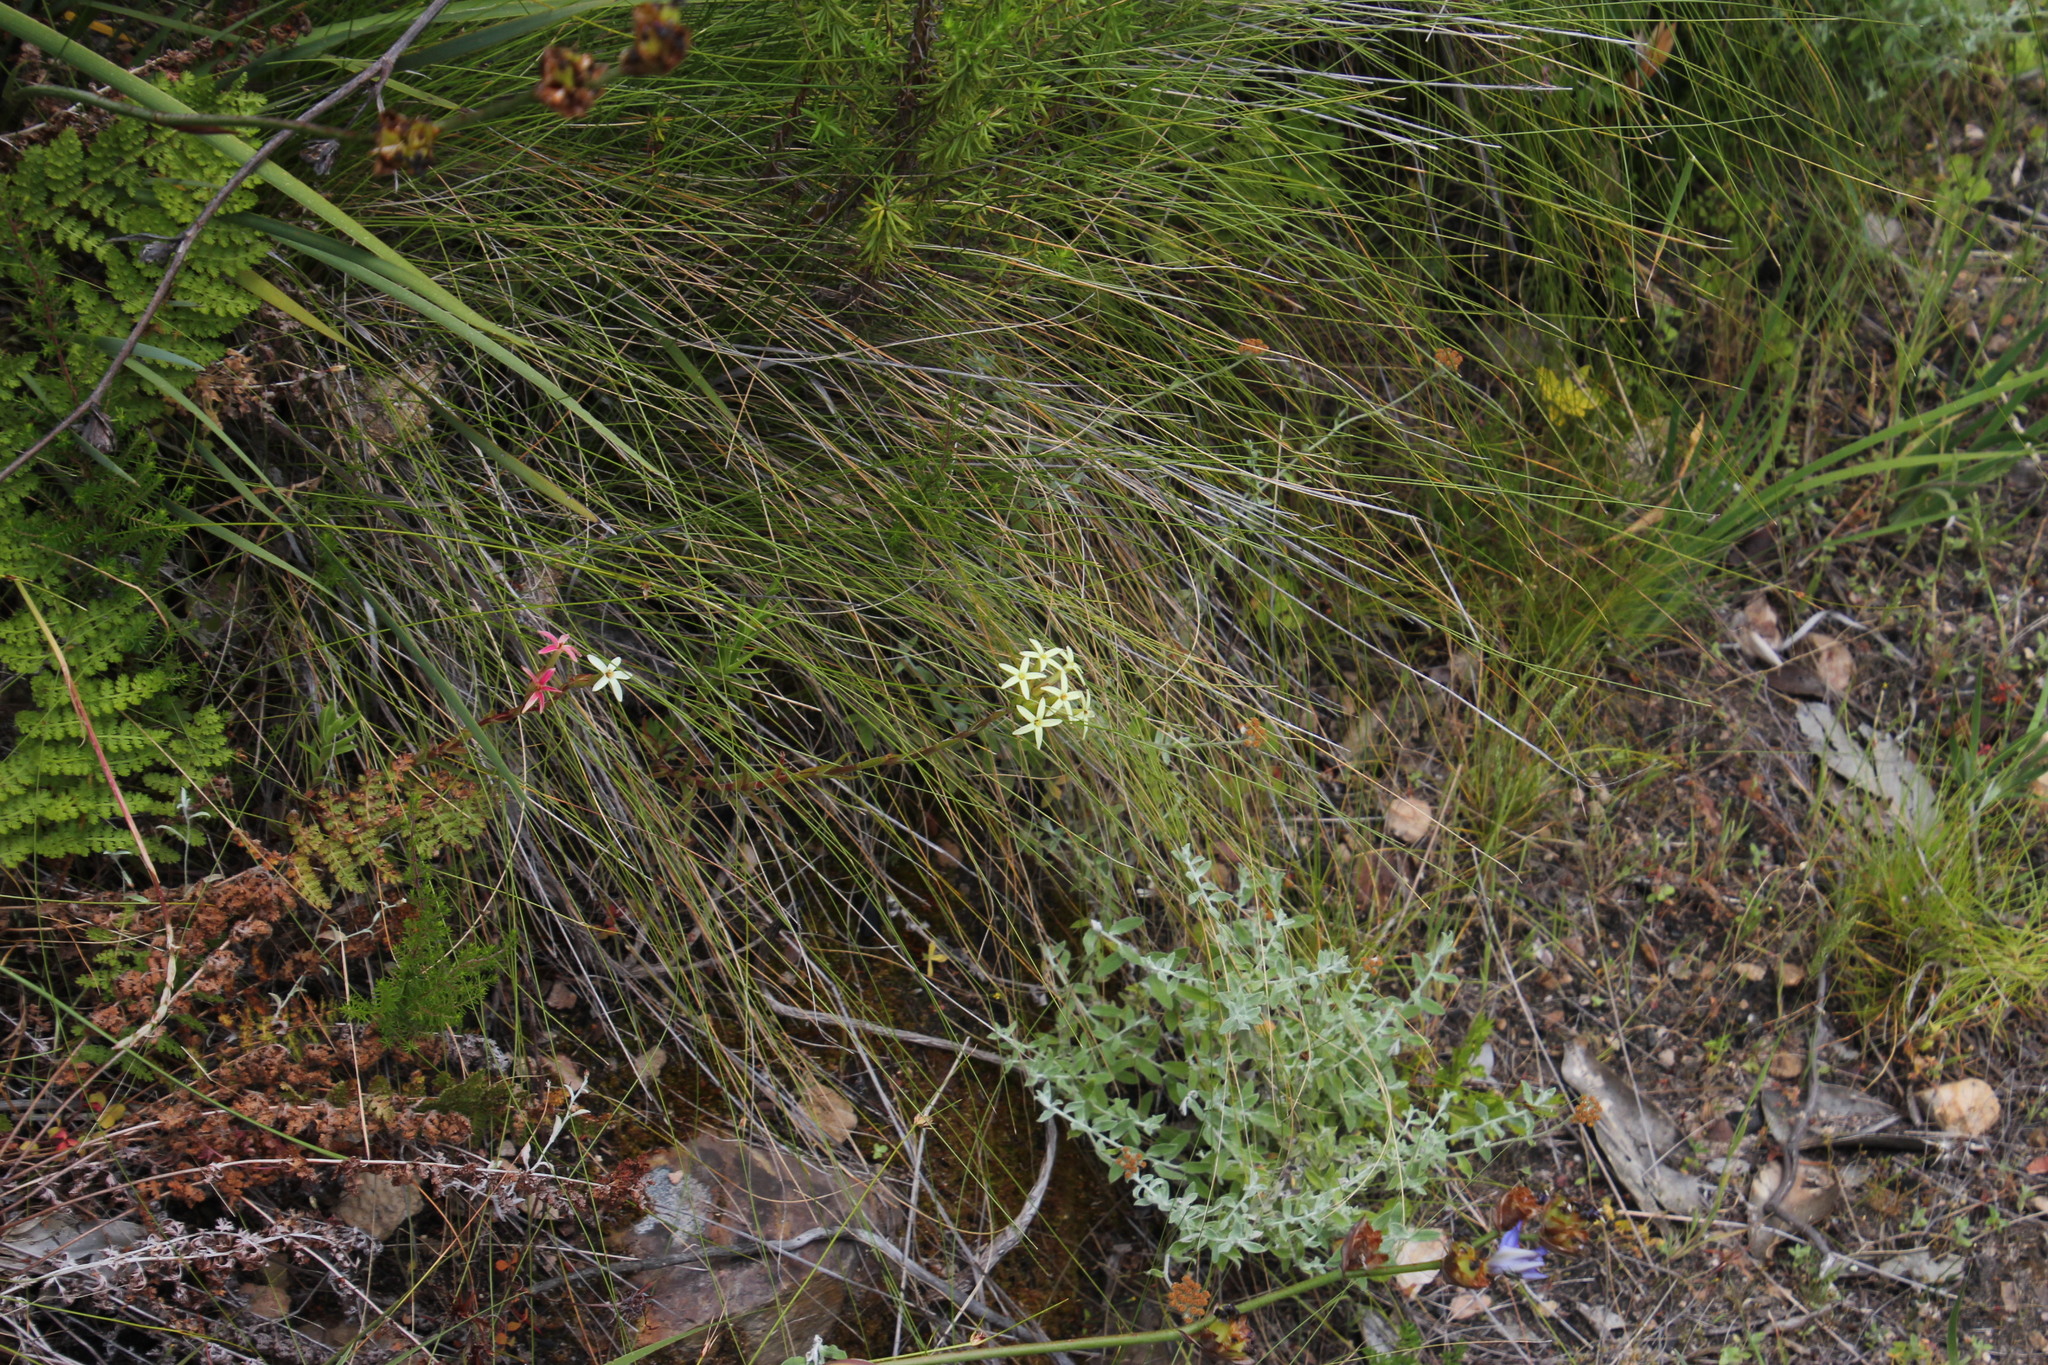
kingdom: Plantae
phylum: Tracheophyta
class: Magnoliopsida
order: Saxifragales
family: Crassulaceae
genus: Crassula
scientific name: Crassula fascicularis
